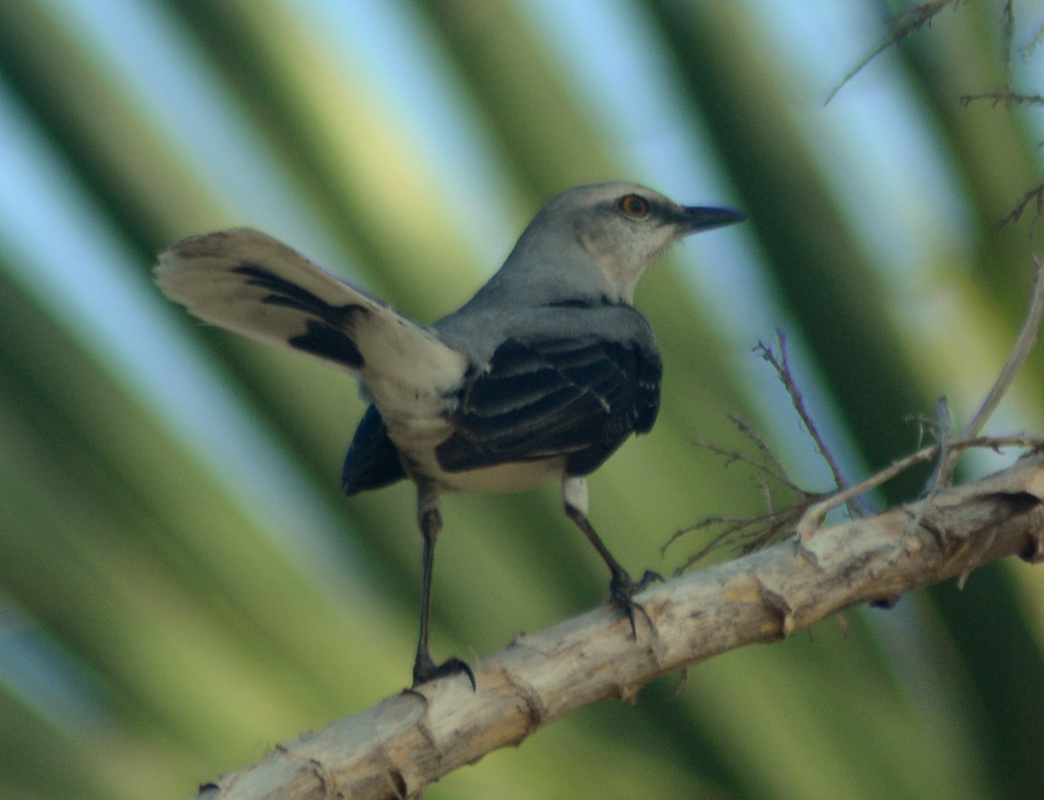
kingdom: Animalia
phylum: Chordata
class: Aves
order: Passeriformes
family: Mimidae
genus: Mimus
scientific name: Mimus gilvus
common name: Tropical mockingbird
